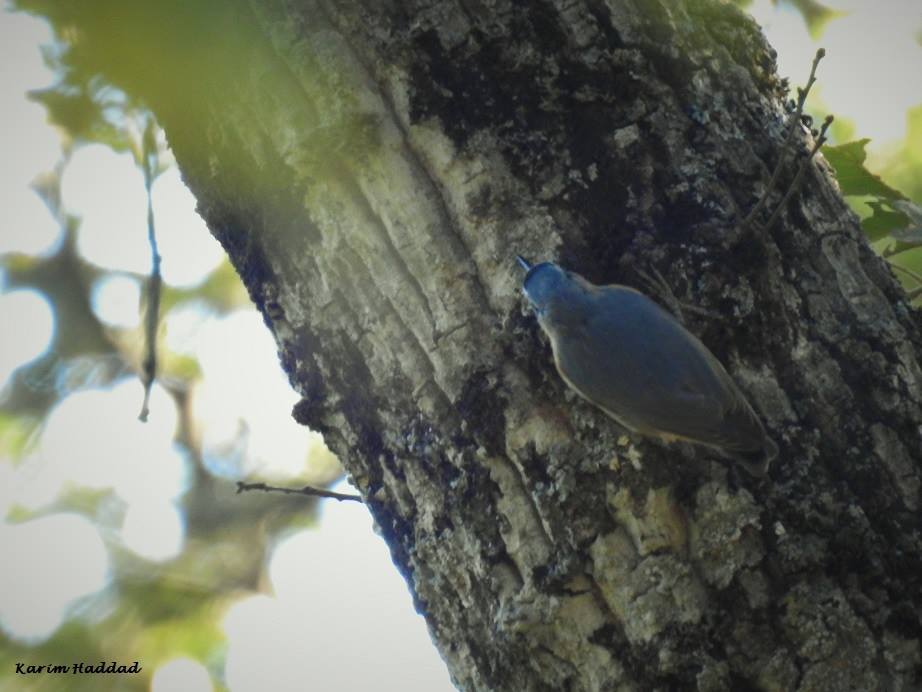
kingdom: Animalia
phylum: Chordata
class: Aves
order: Passeriformes
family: Sittidae
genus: Sitta
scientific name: Sitta ledanti
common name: Algerian nuthatch
